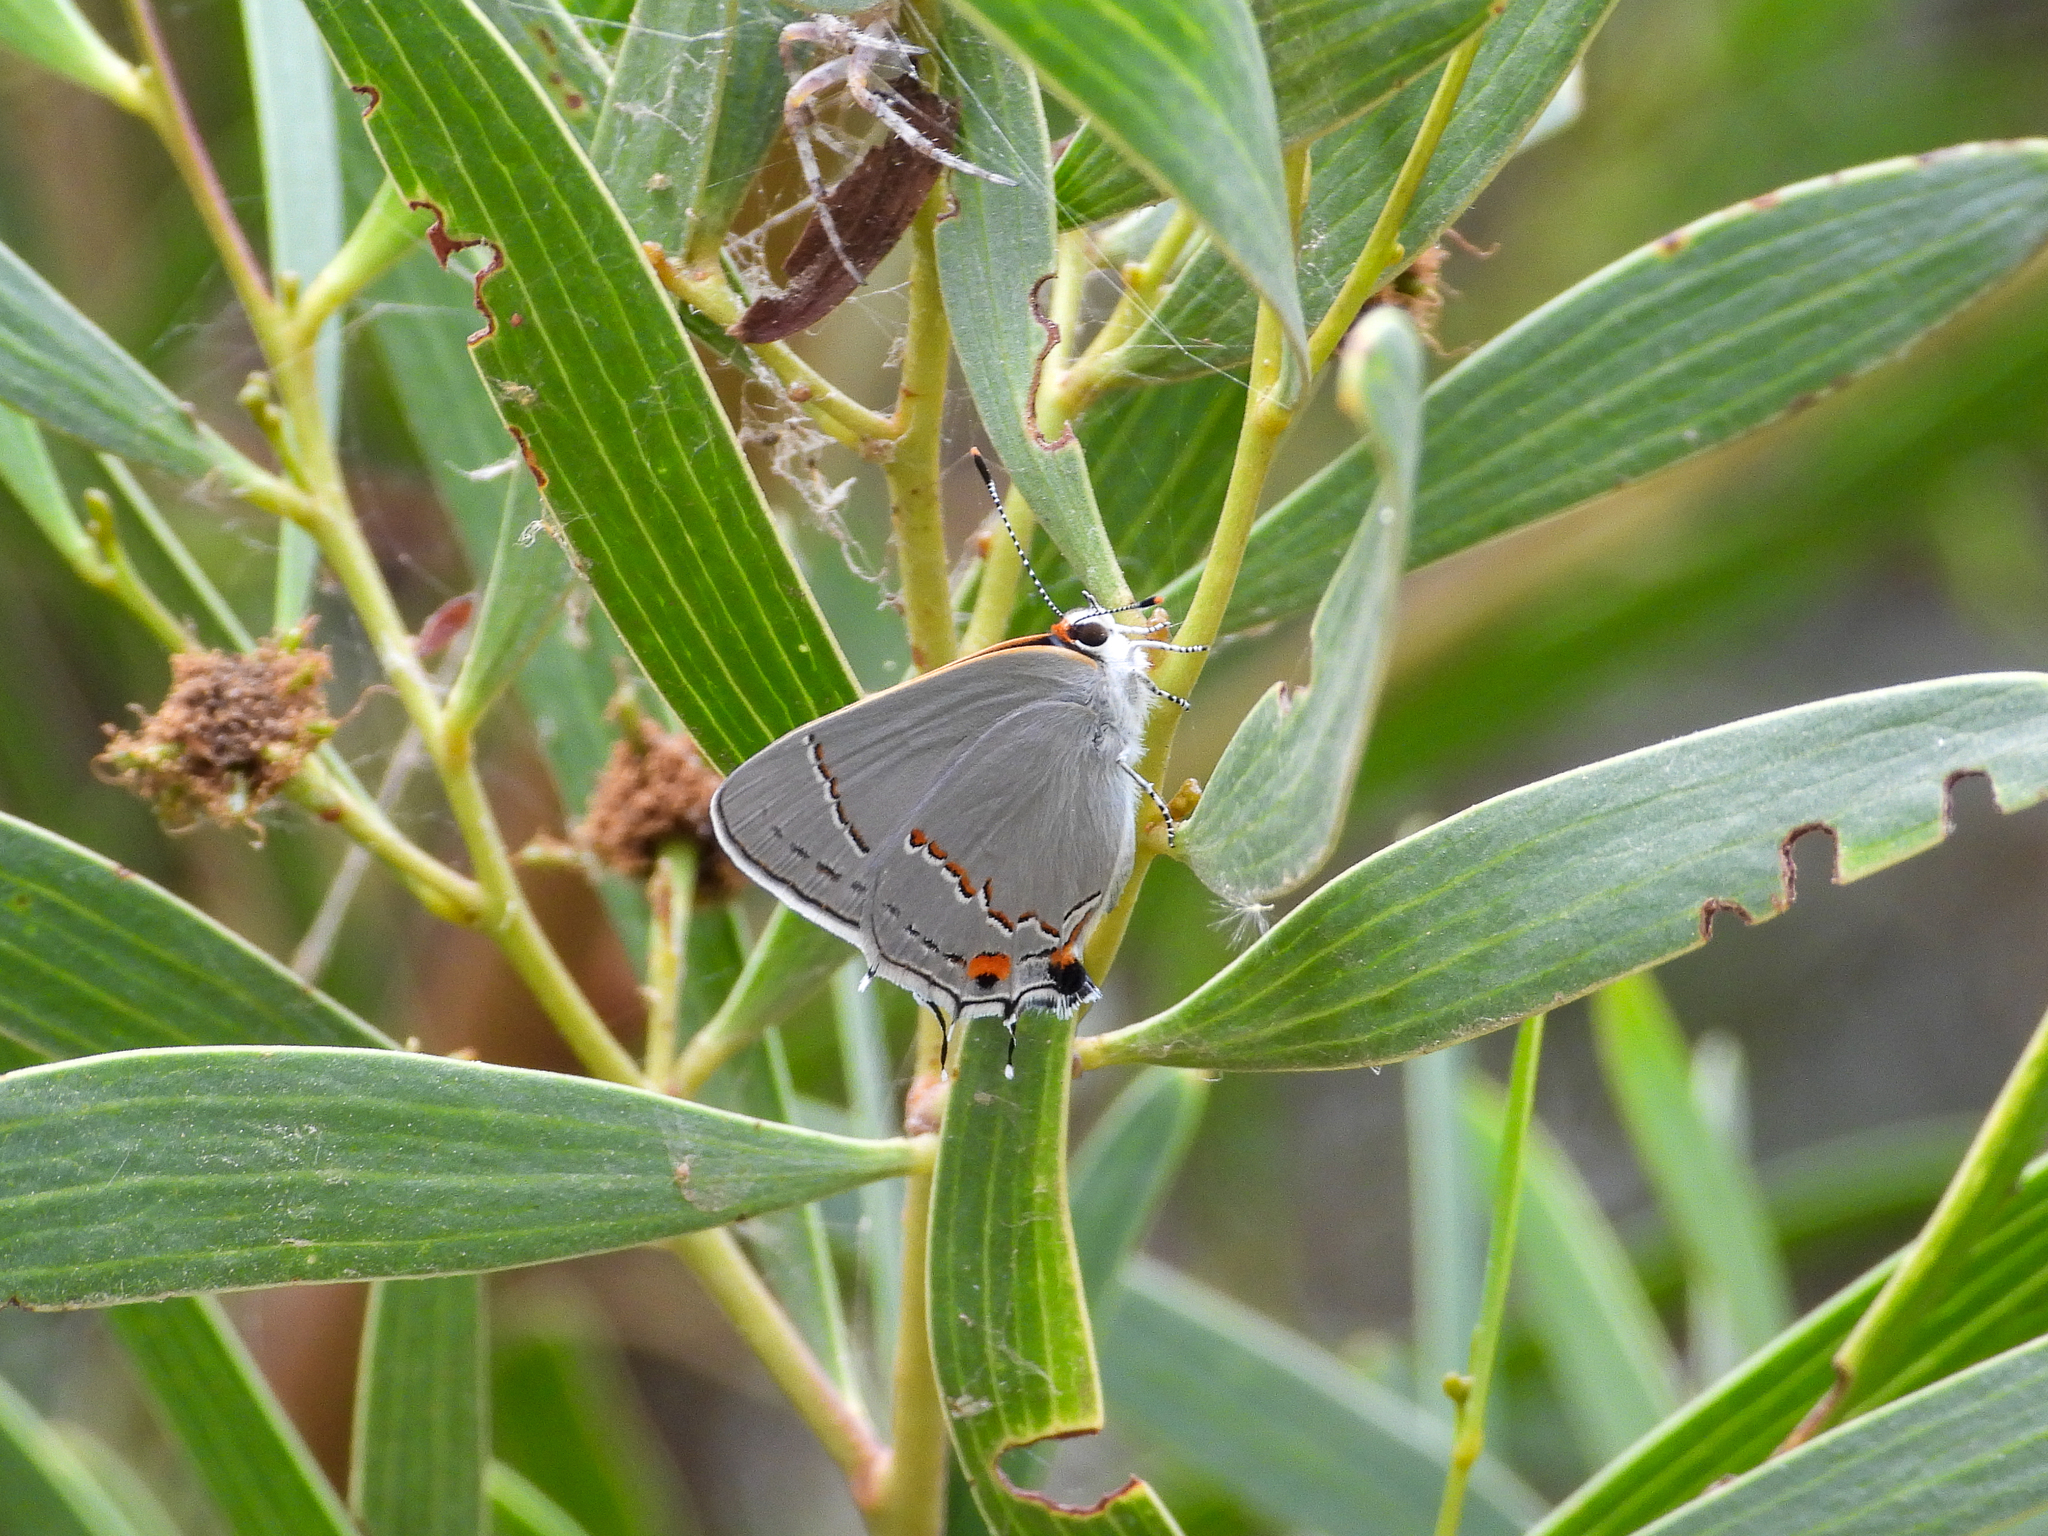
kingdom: Animalia
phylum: Arthropoda
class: Insecta
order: Lepidoptera
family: Lycaenidae
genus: Strymon
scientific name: Strymon melinus
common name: Gray hairstreak
